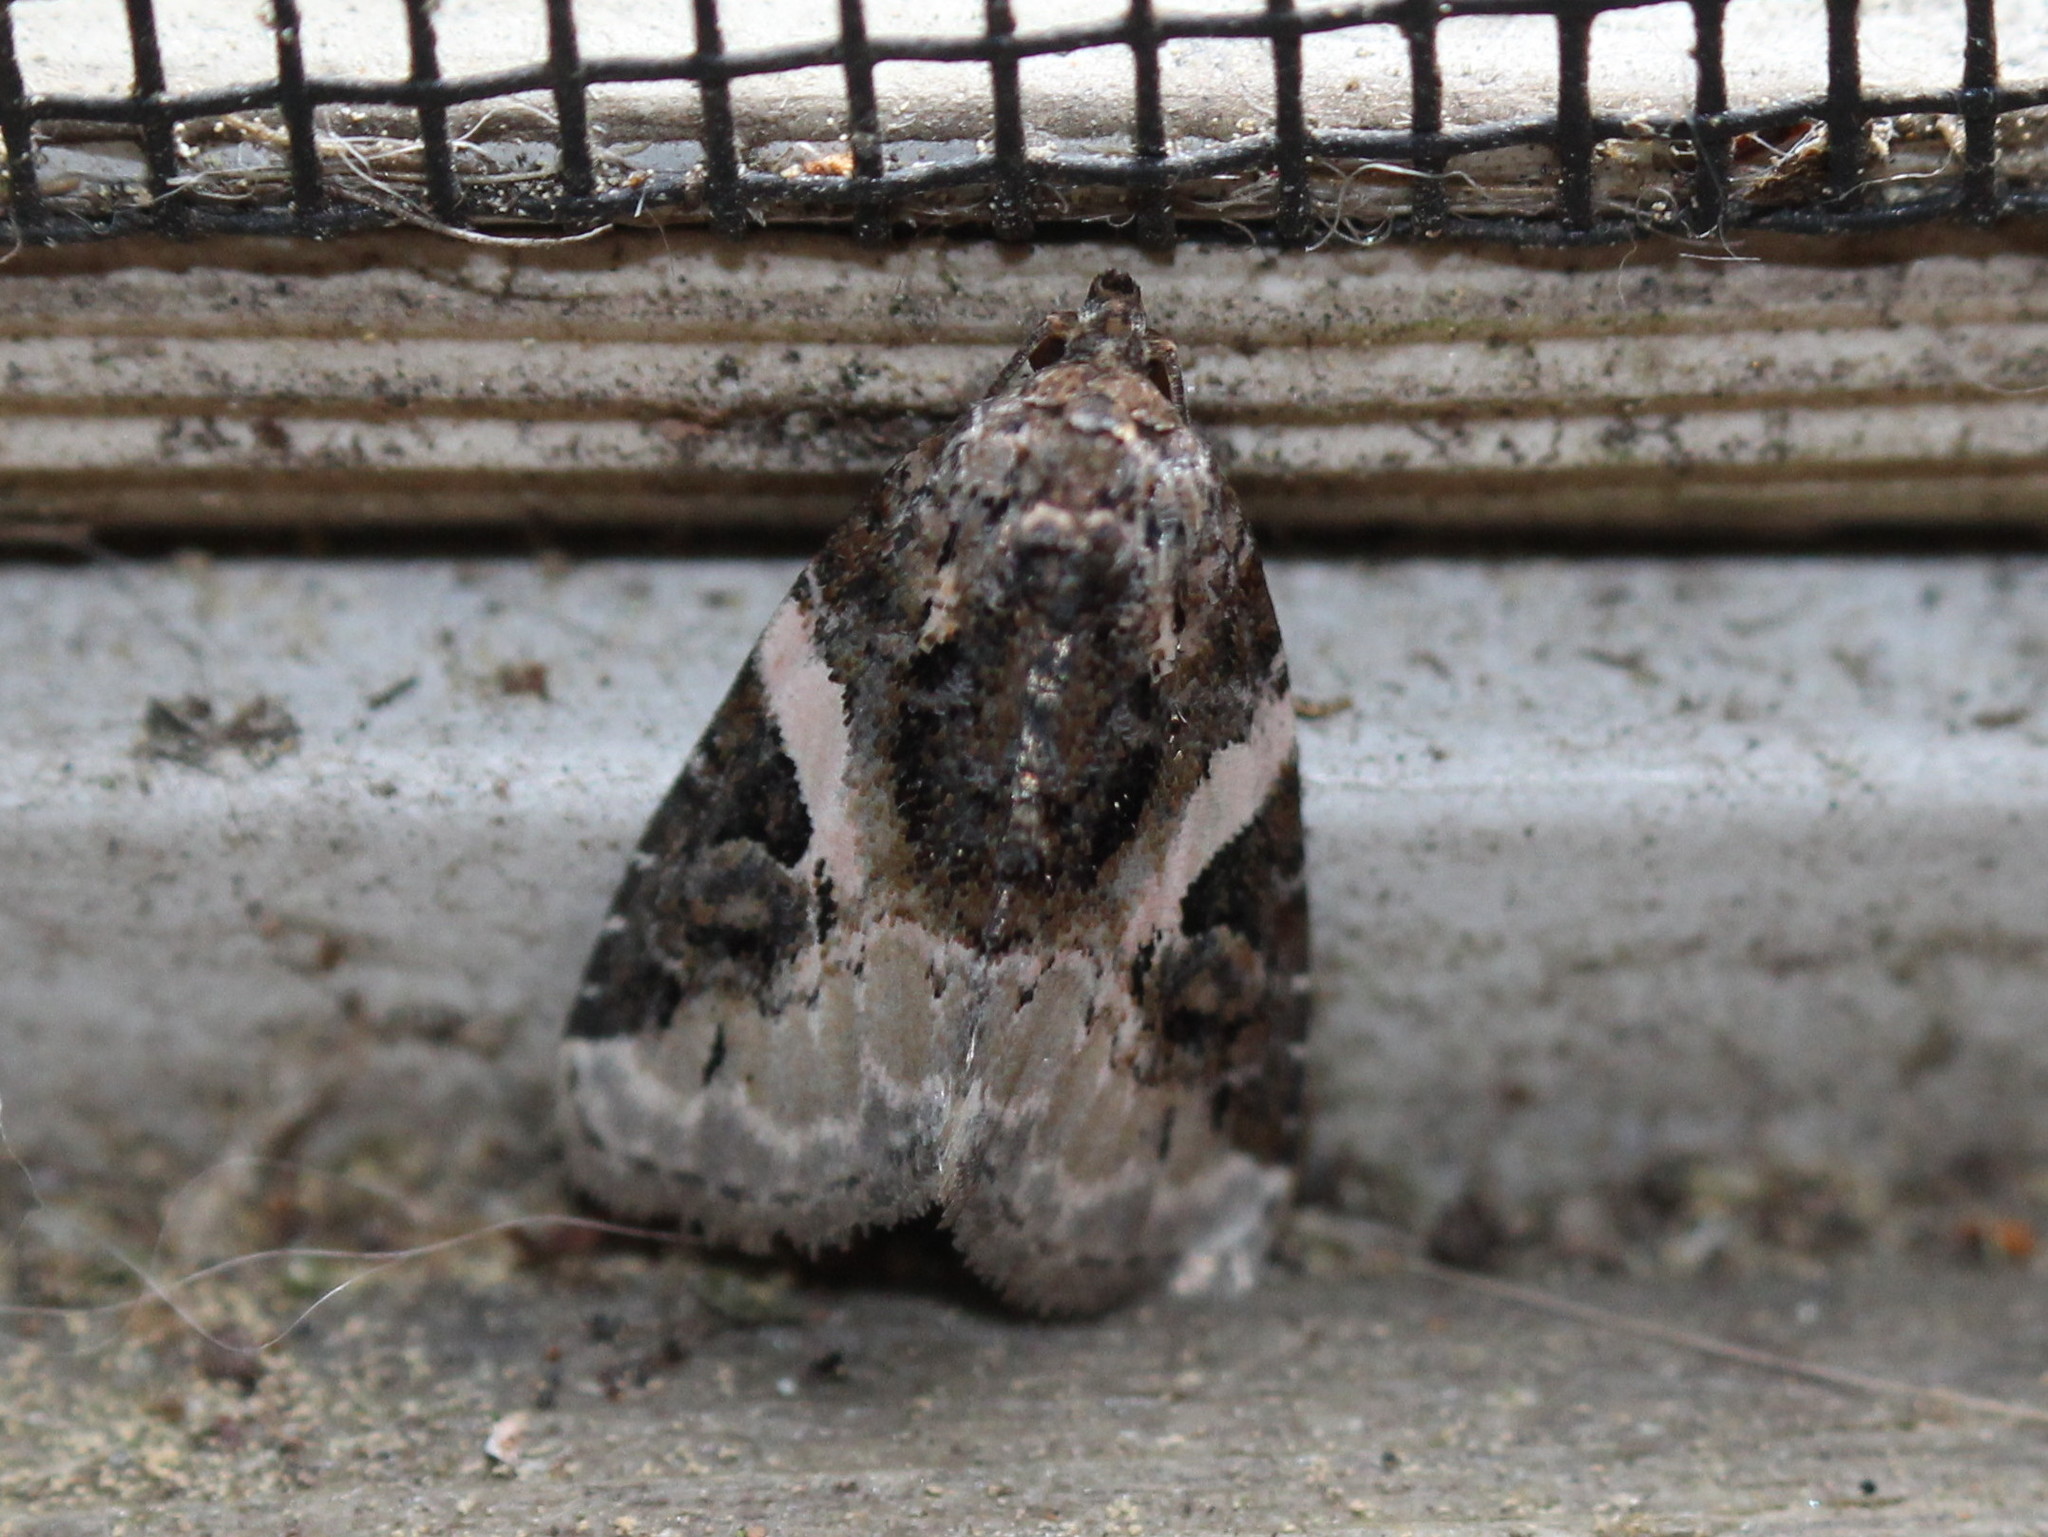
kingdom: Animalia
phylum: Arthropoda
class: Insecta
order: Lepidoptera
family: Noctuidae
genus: Pseudeustrotia
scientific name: Pseudeustrotia carneola
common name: Pink-barred lithacodia moth
